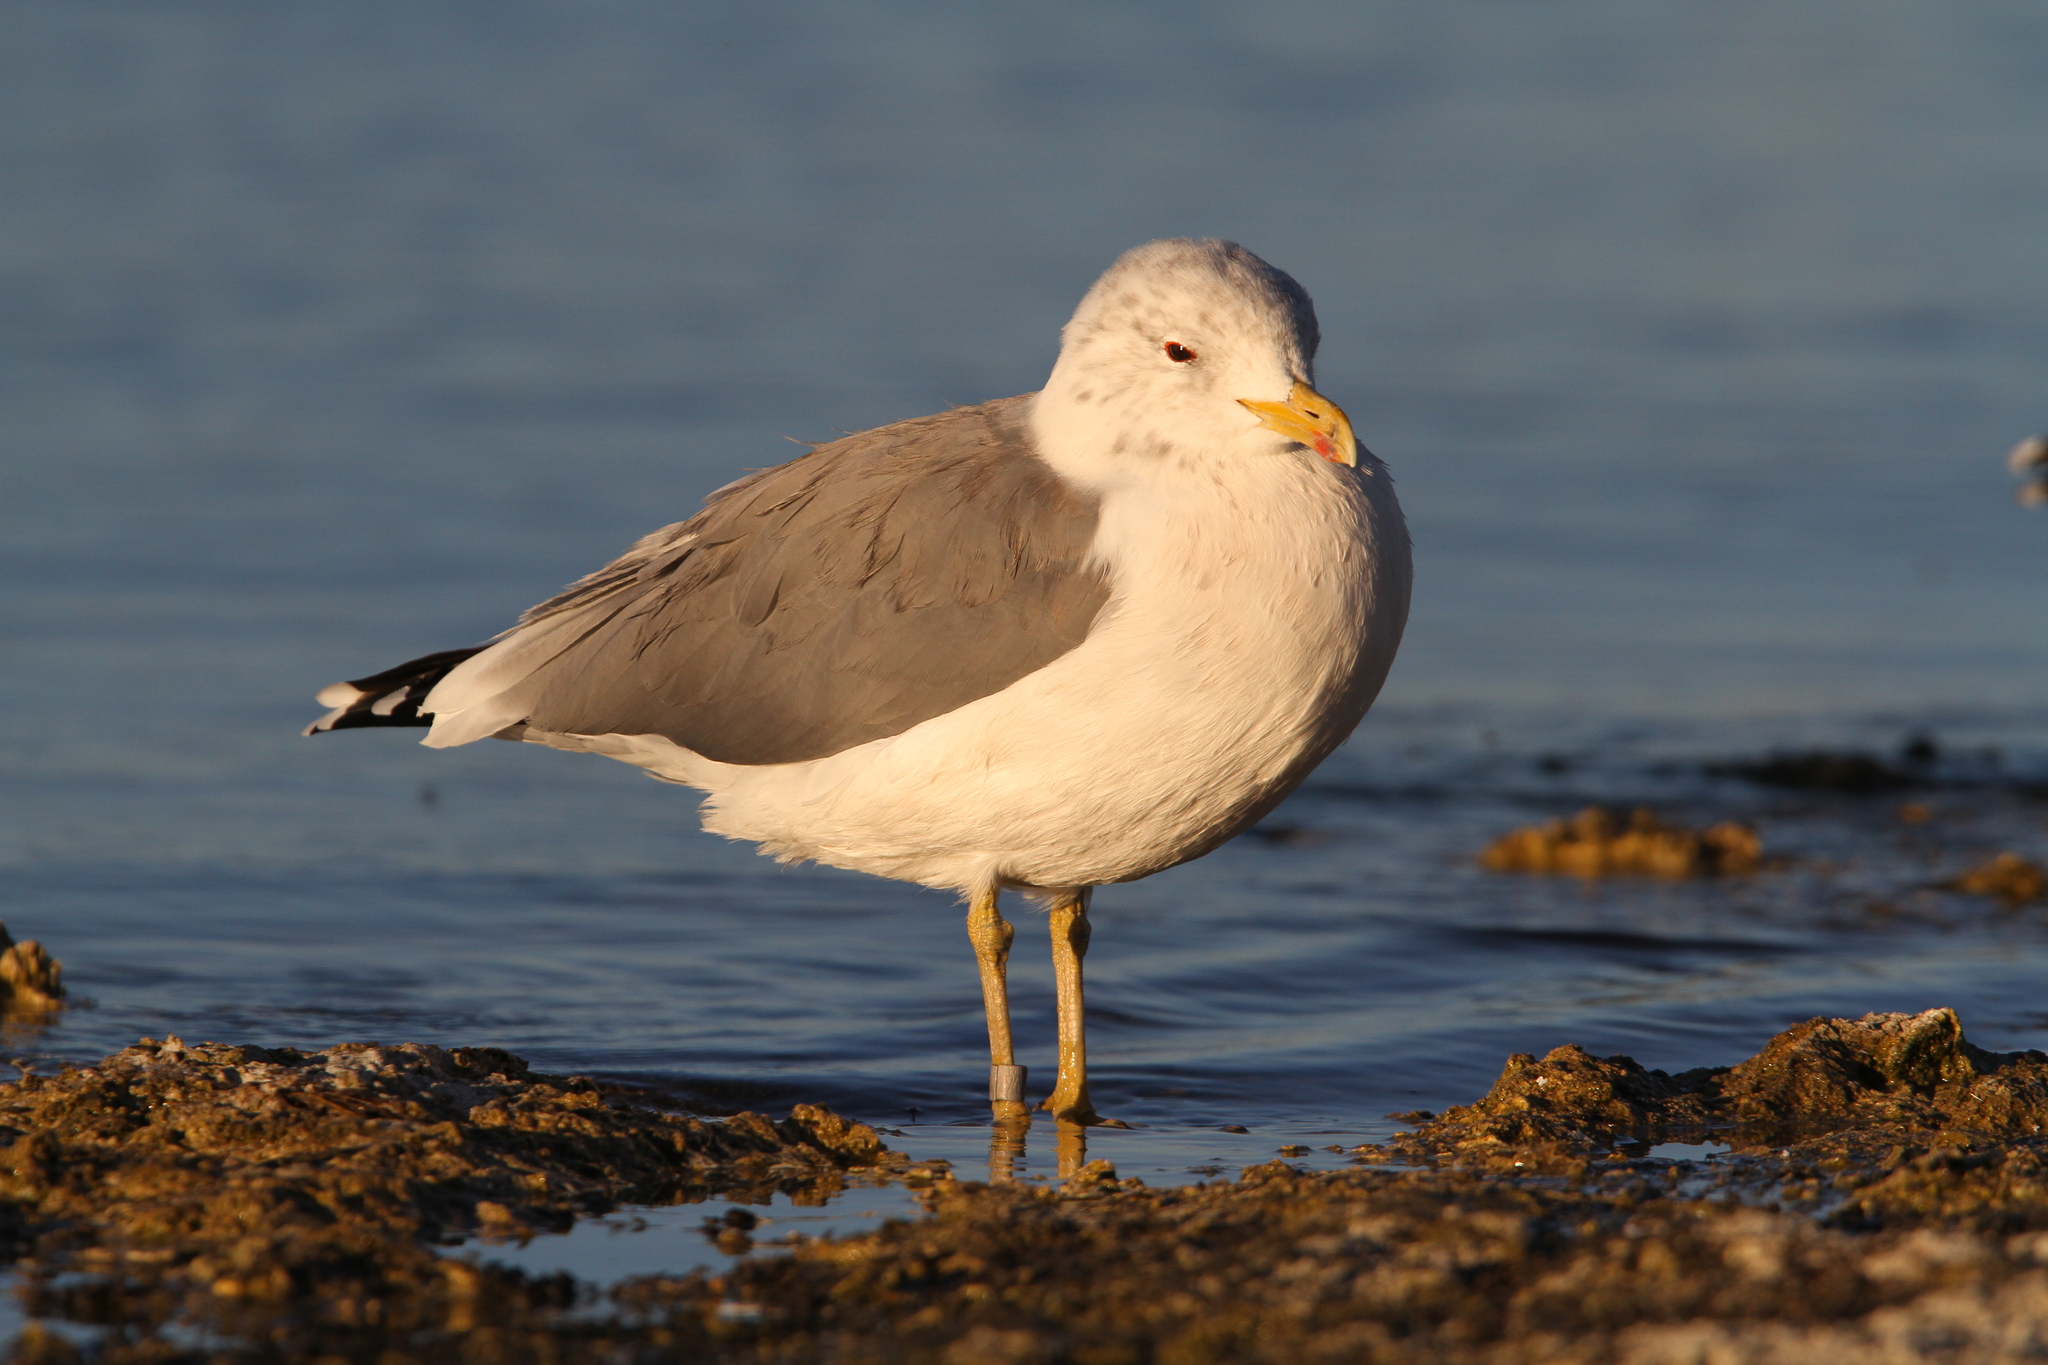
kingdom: Animalia
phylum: Chordata
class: Aves
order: Charadriiformes
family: Laridae
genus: Larus
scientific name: Larus californicus
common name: California gull
